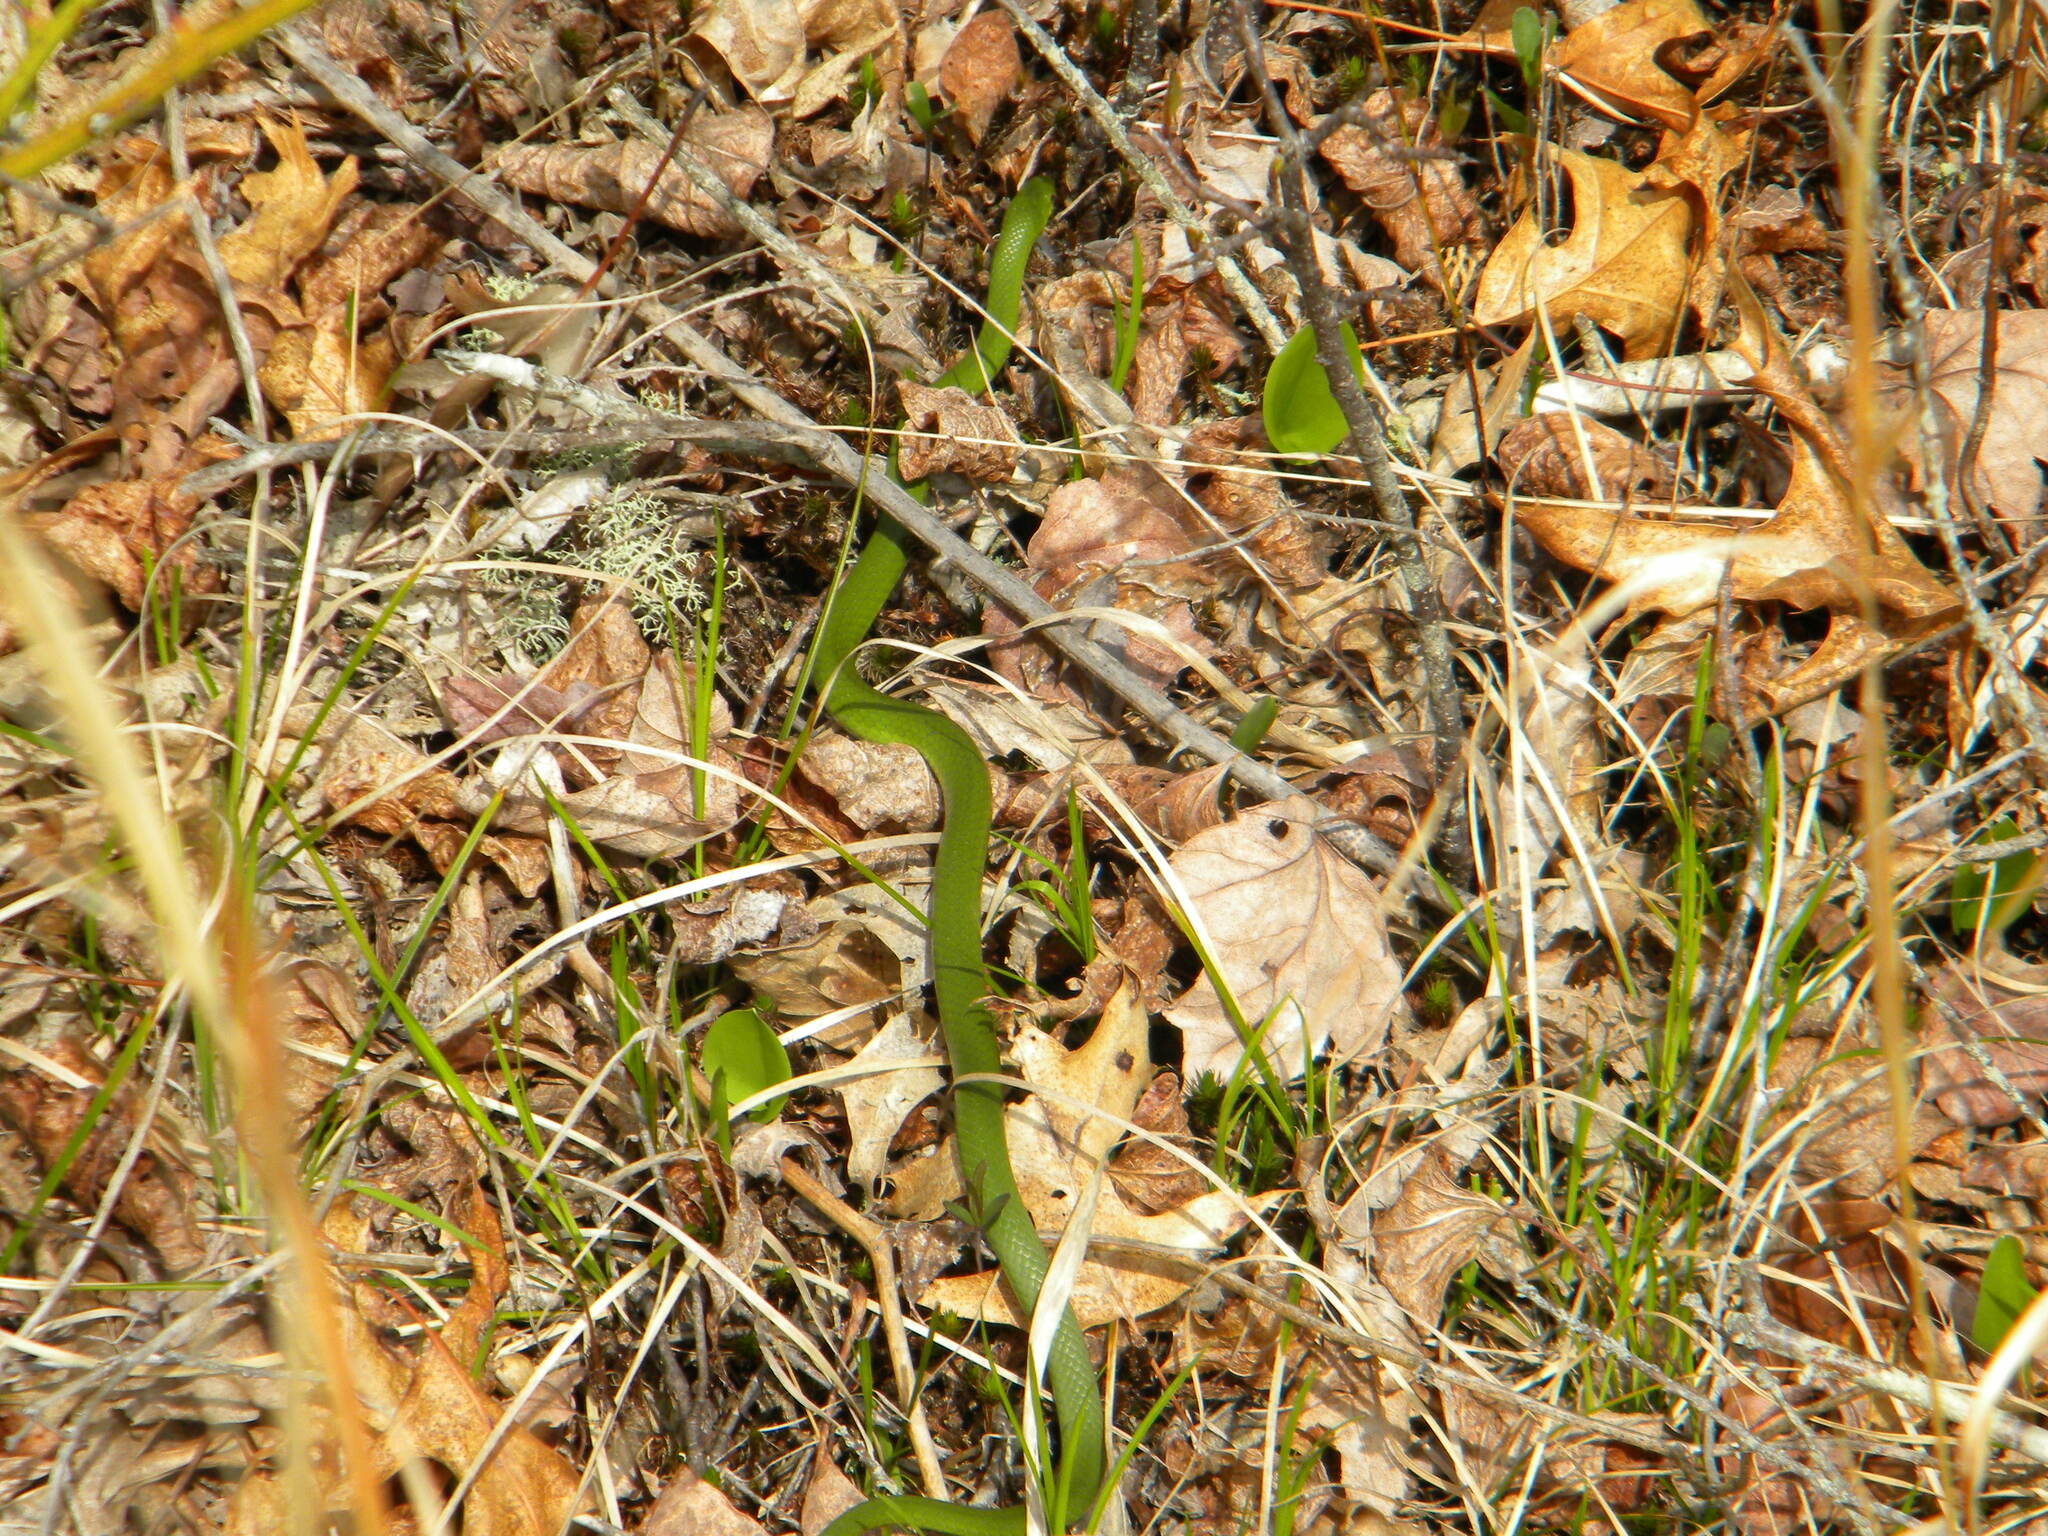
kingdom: Animalia
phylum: Chordata
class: Squamata
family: Colubridae
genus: Opheodrys
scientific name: Opheodrys vernalis
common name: Smooth green snake
